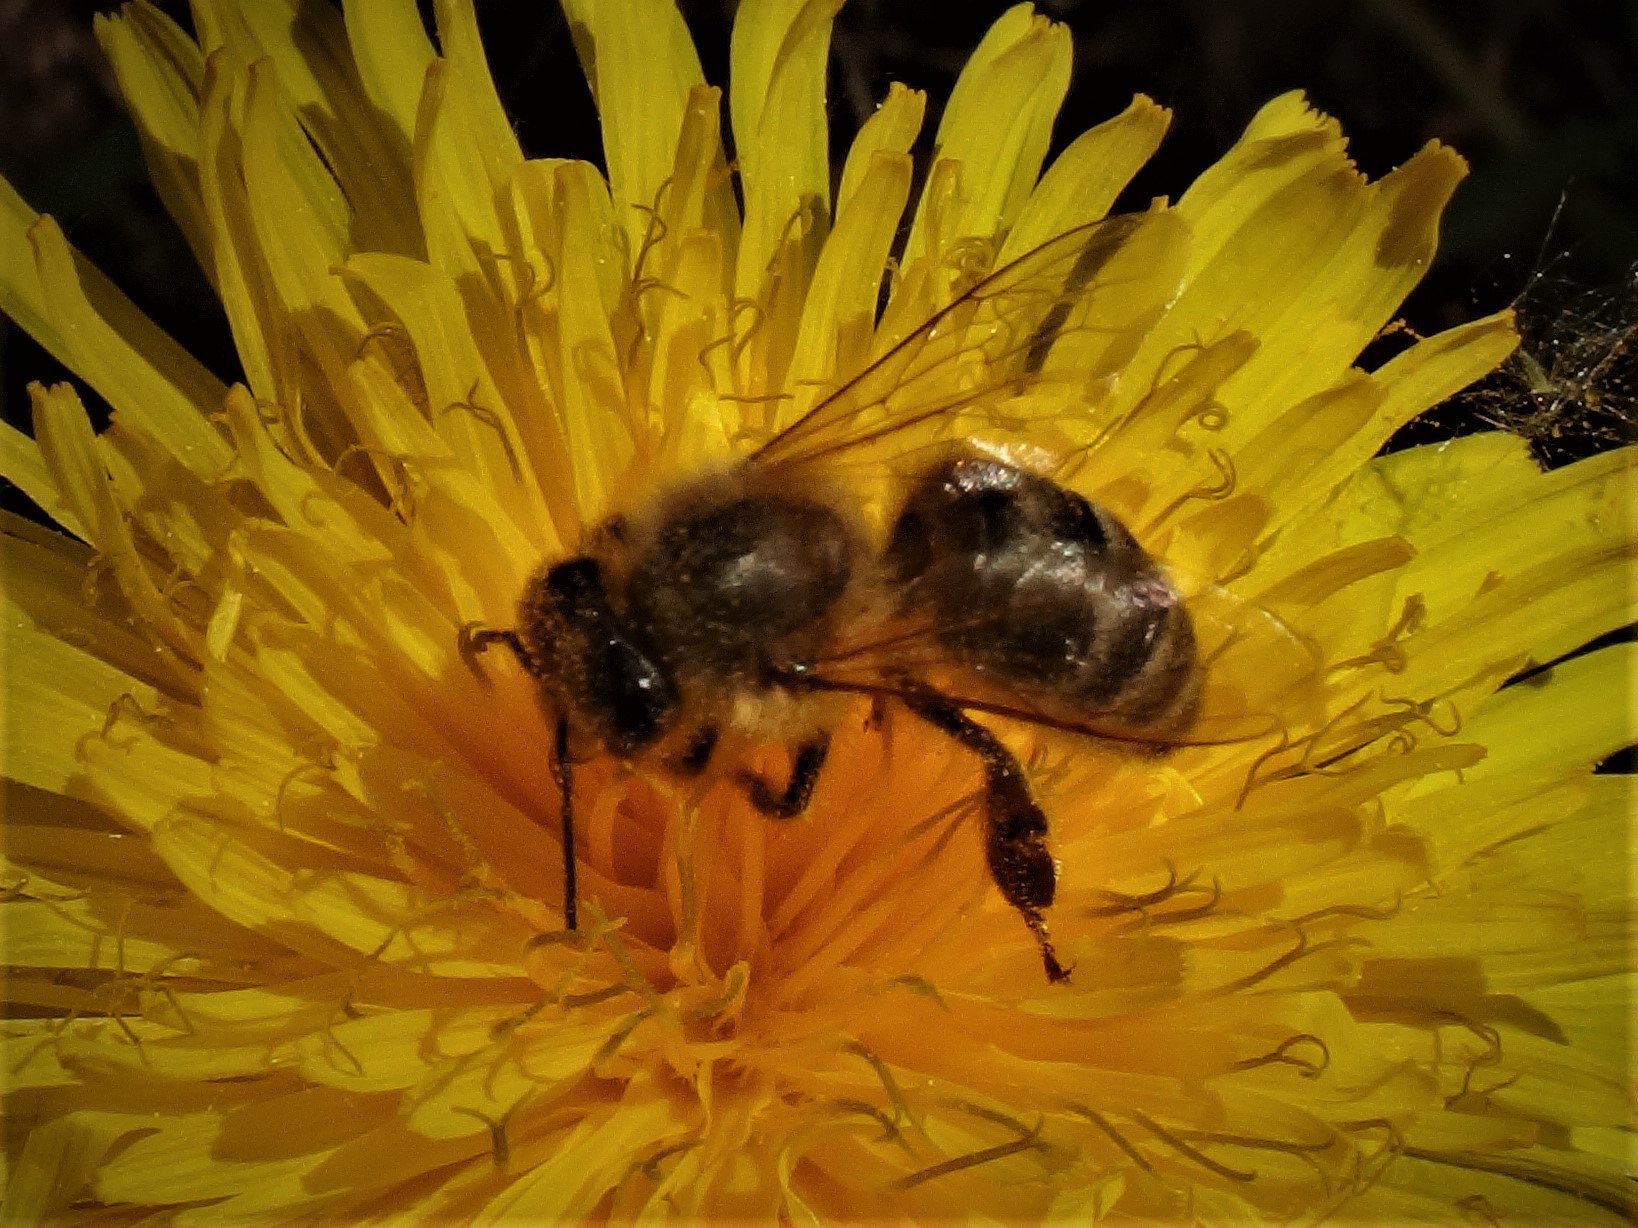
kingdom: Animalia
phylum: Arthropoda
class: Insecta
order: Hymenoptera
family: Apidae
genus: Apis
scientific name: Apis mellifera
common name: Honey bee
